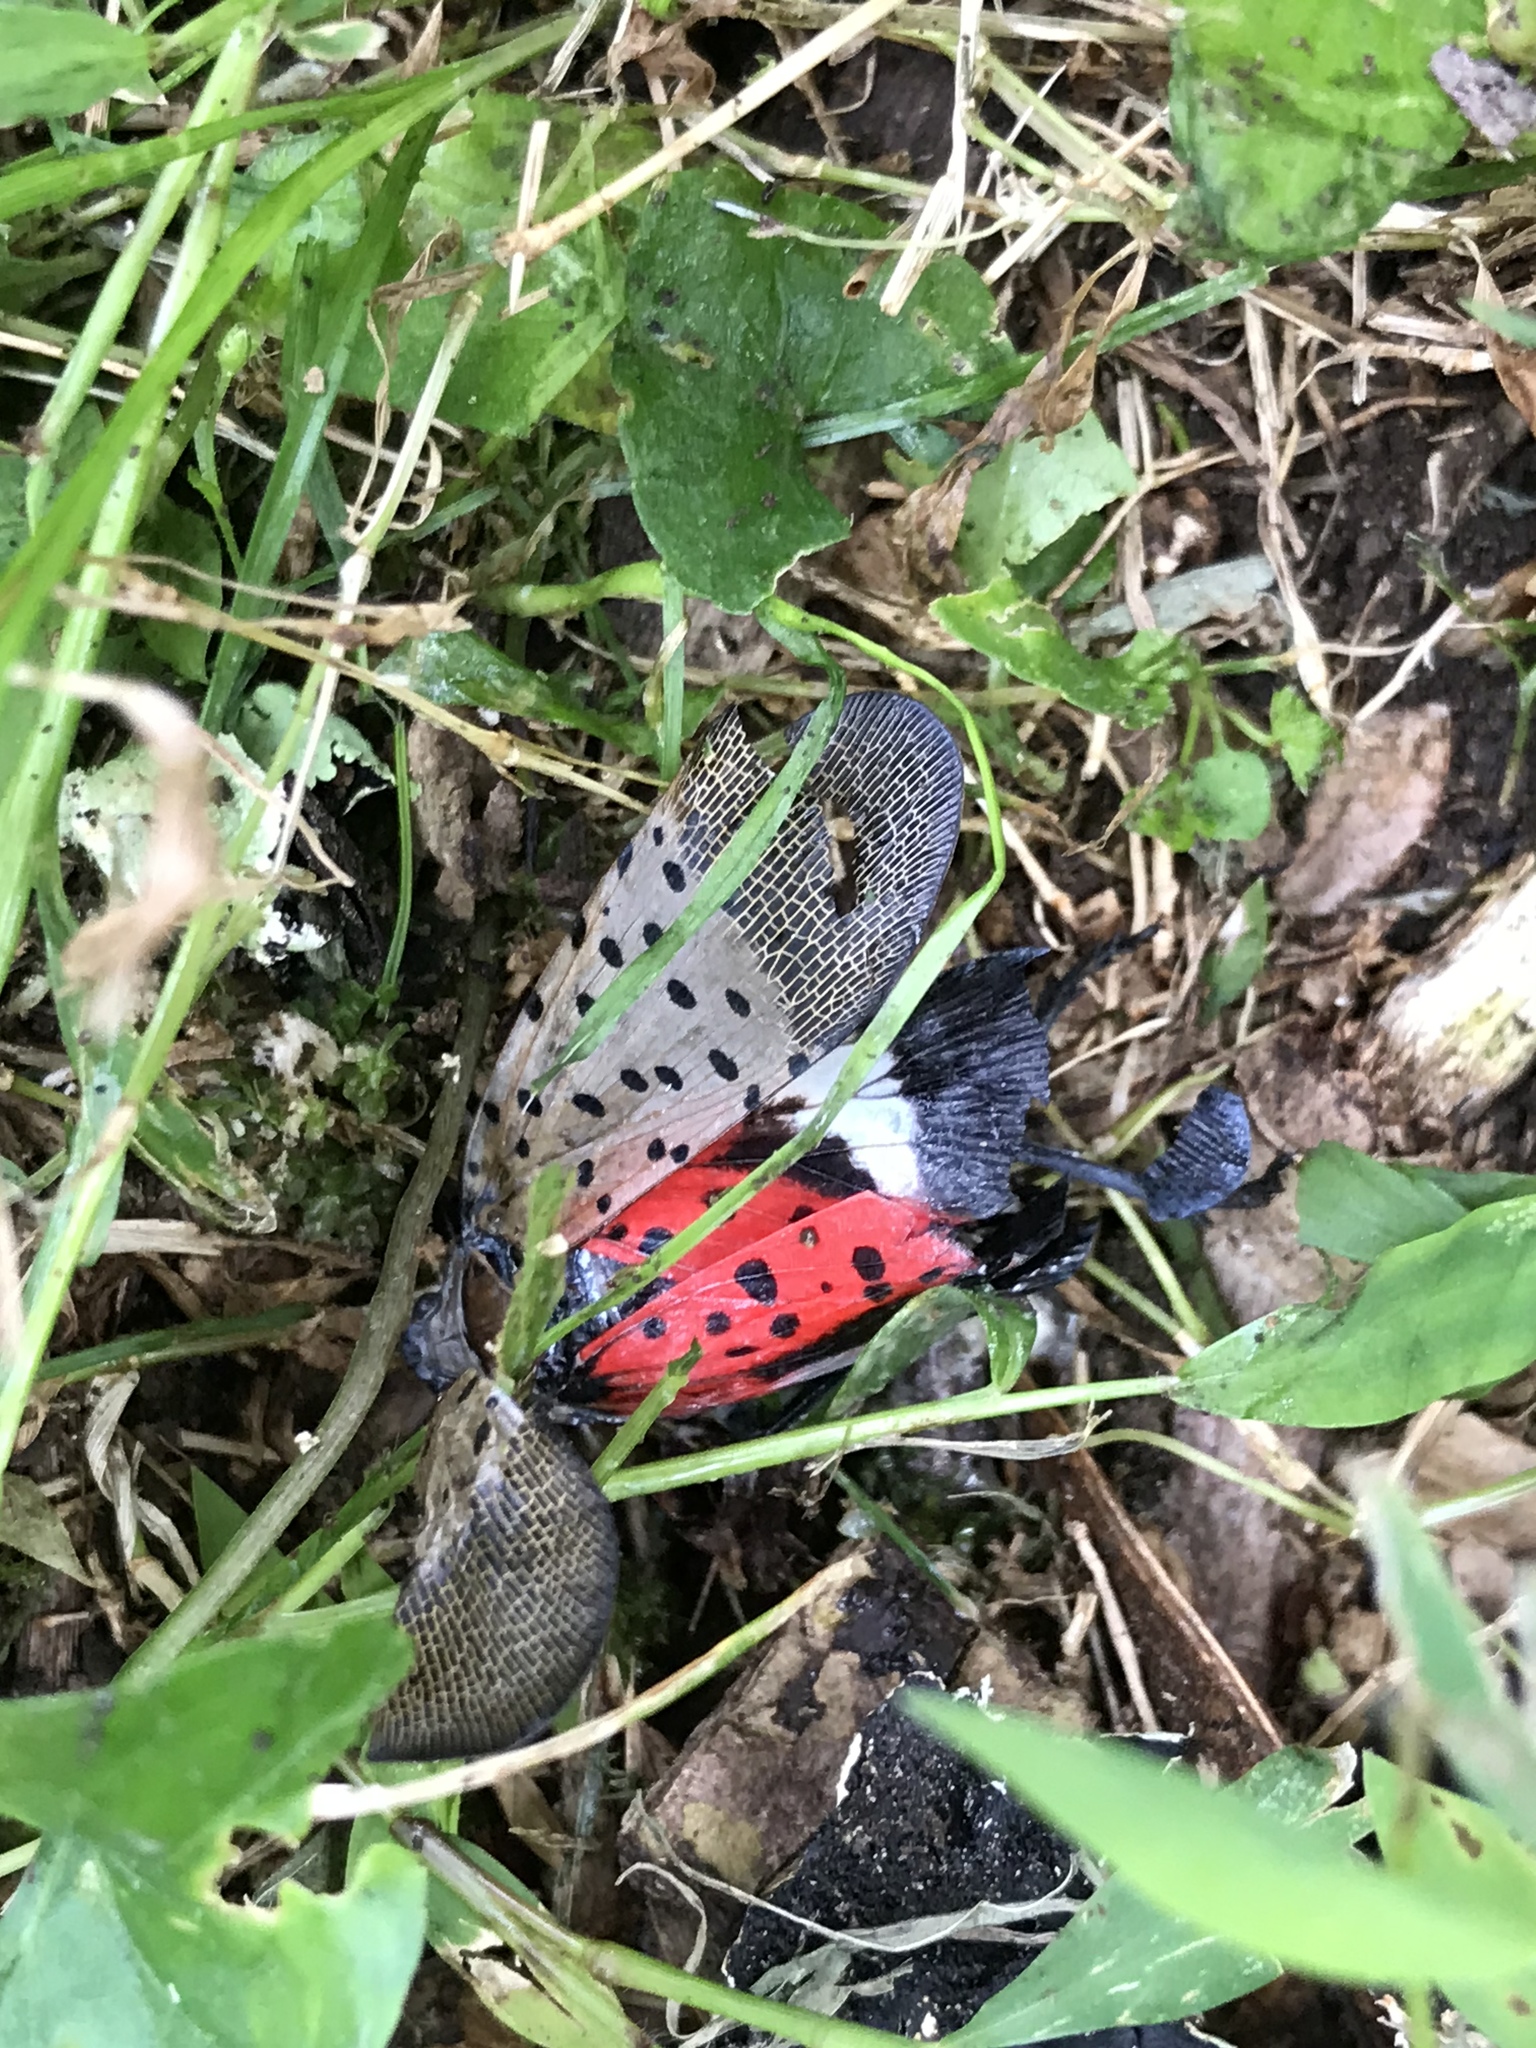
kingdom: Animalia
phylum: Arthropoda
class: Insecta
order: Hemiptera
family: Fulgoridae
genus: Lycorma
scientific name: Lycorma delicatula
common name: Spotted lanternfly
